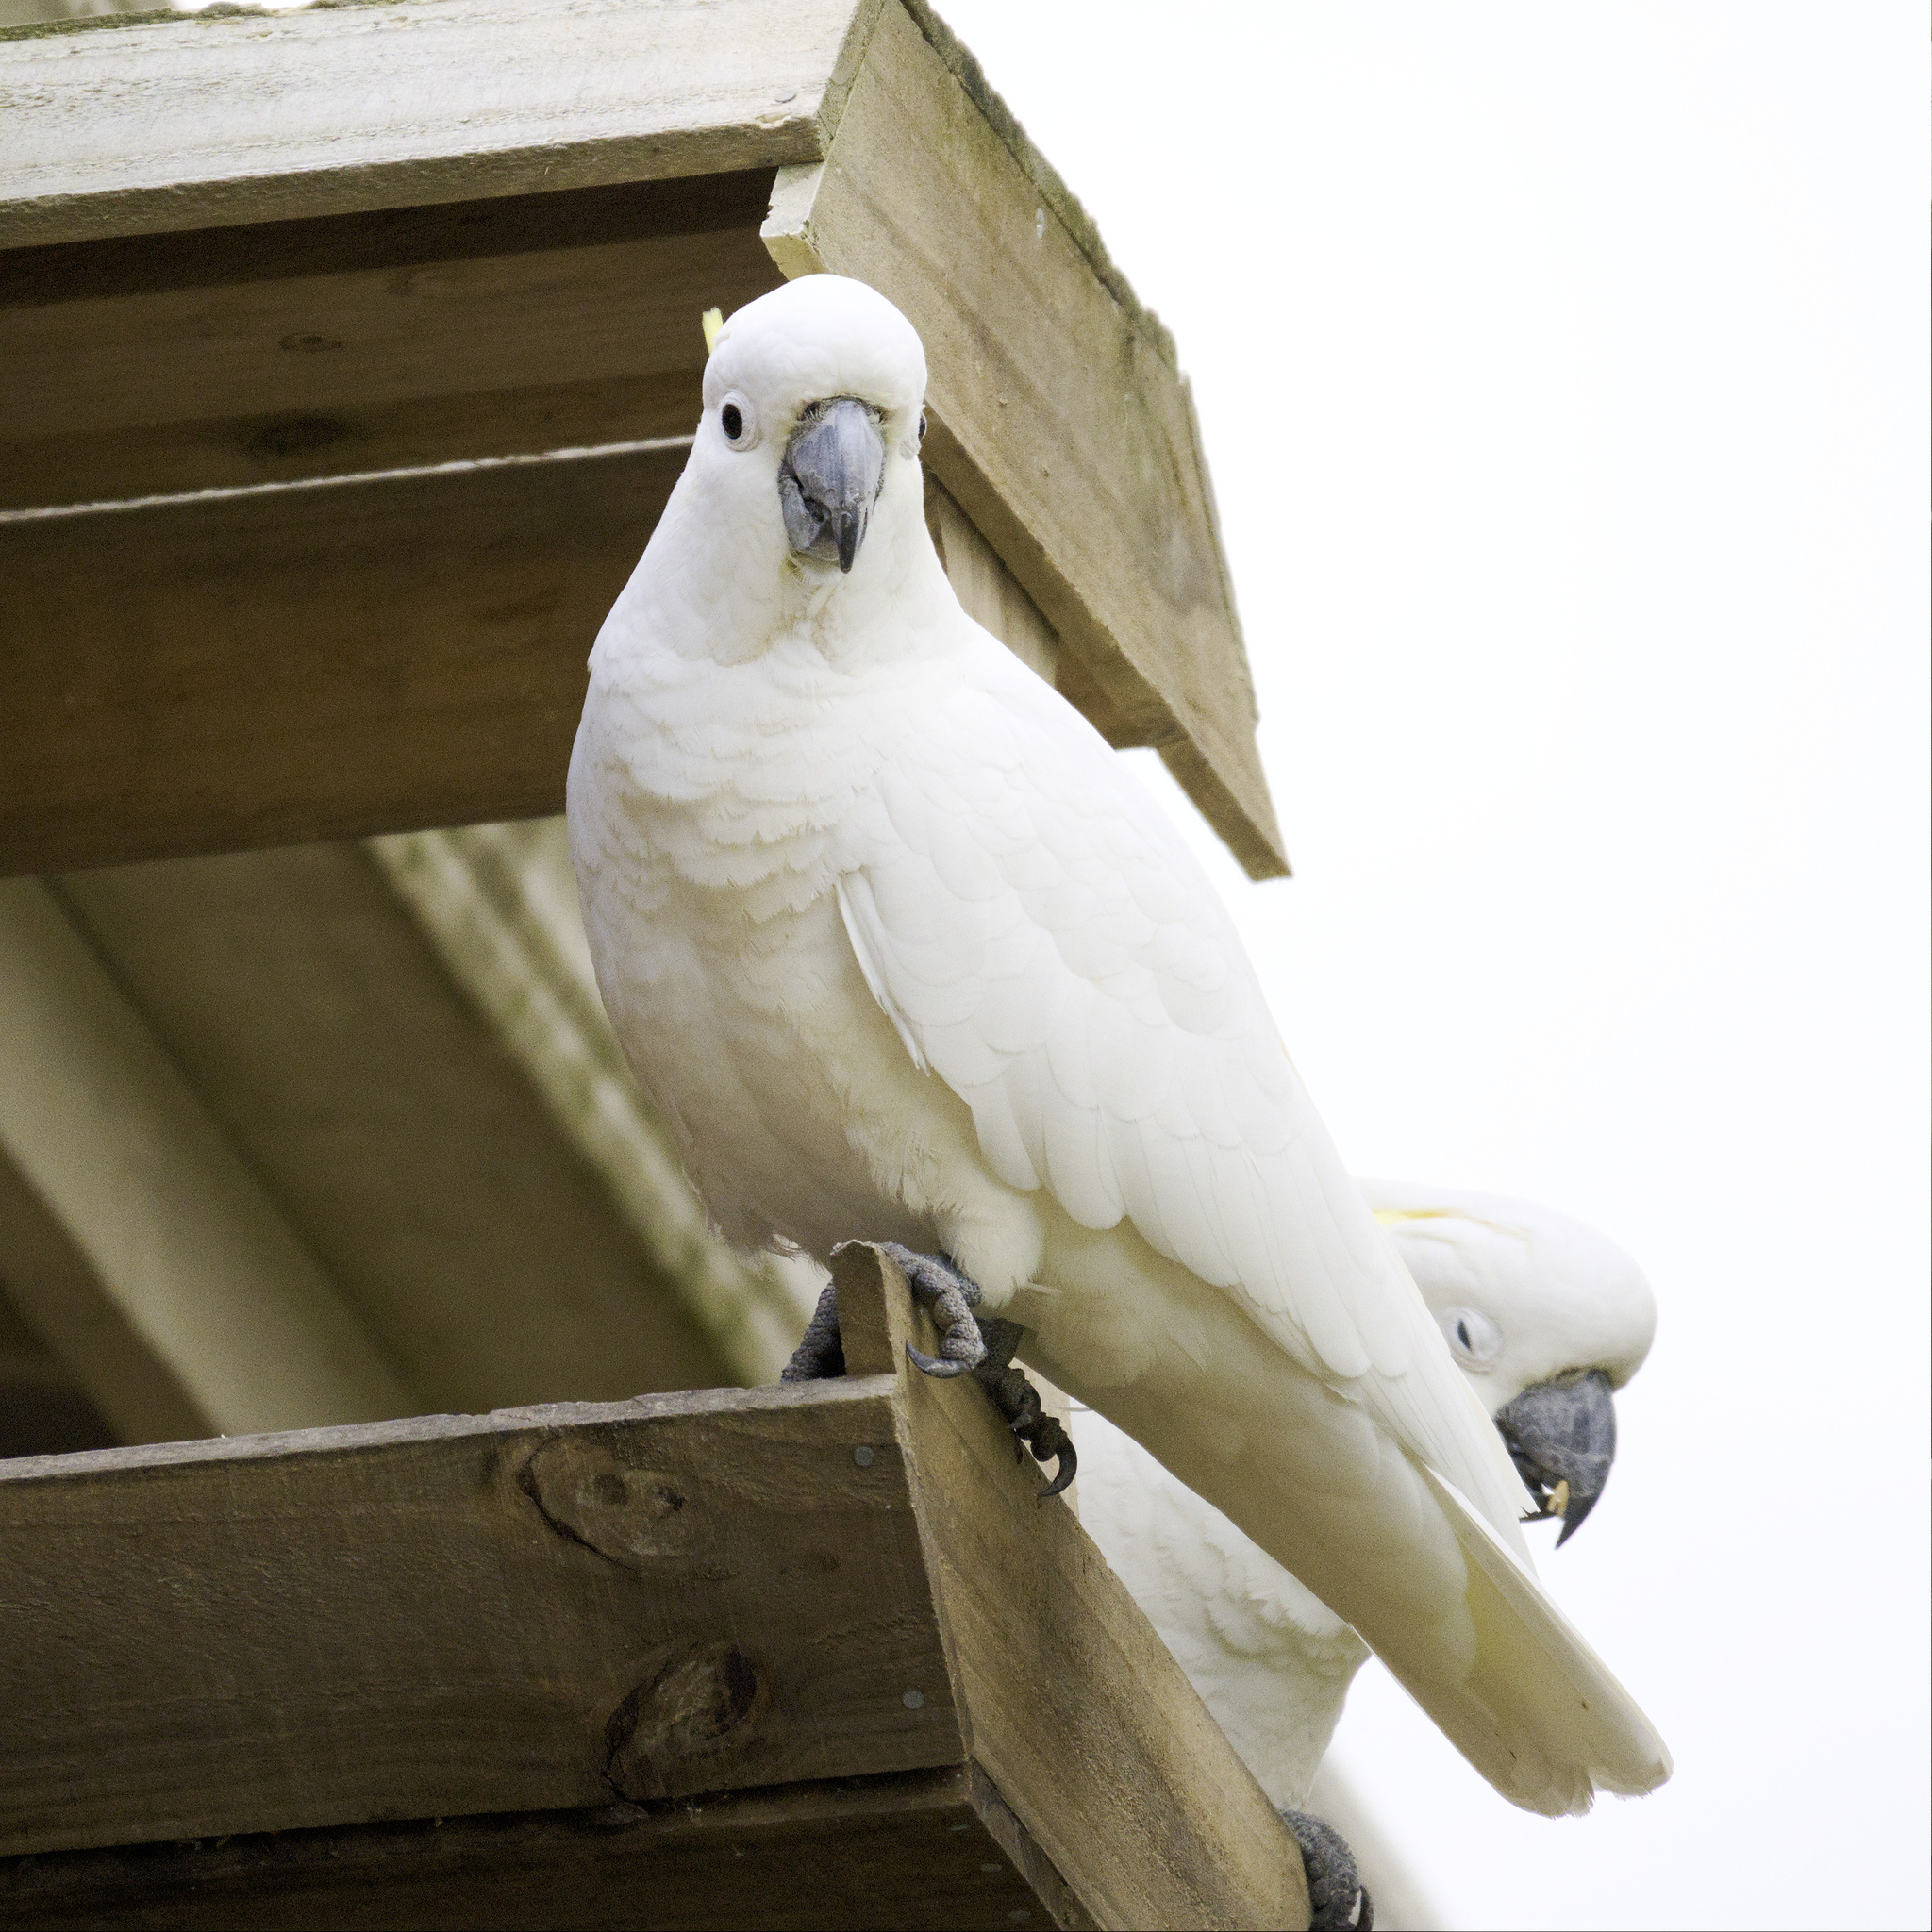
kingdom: Animalia
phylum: Chordata
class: Aves
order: Psittaciformes
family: Psittacidae
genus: Cacatua
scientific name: Cacatua galerita
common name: Sulphur-crested cockatoo
